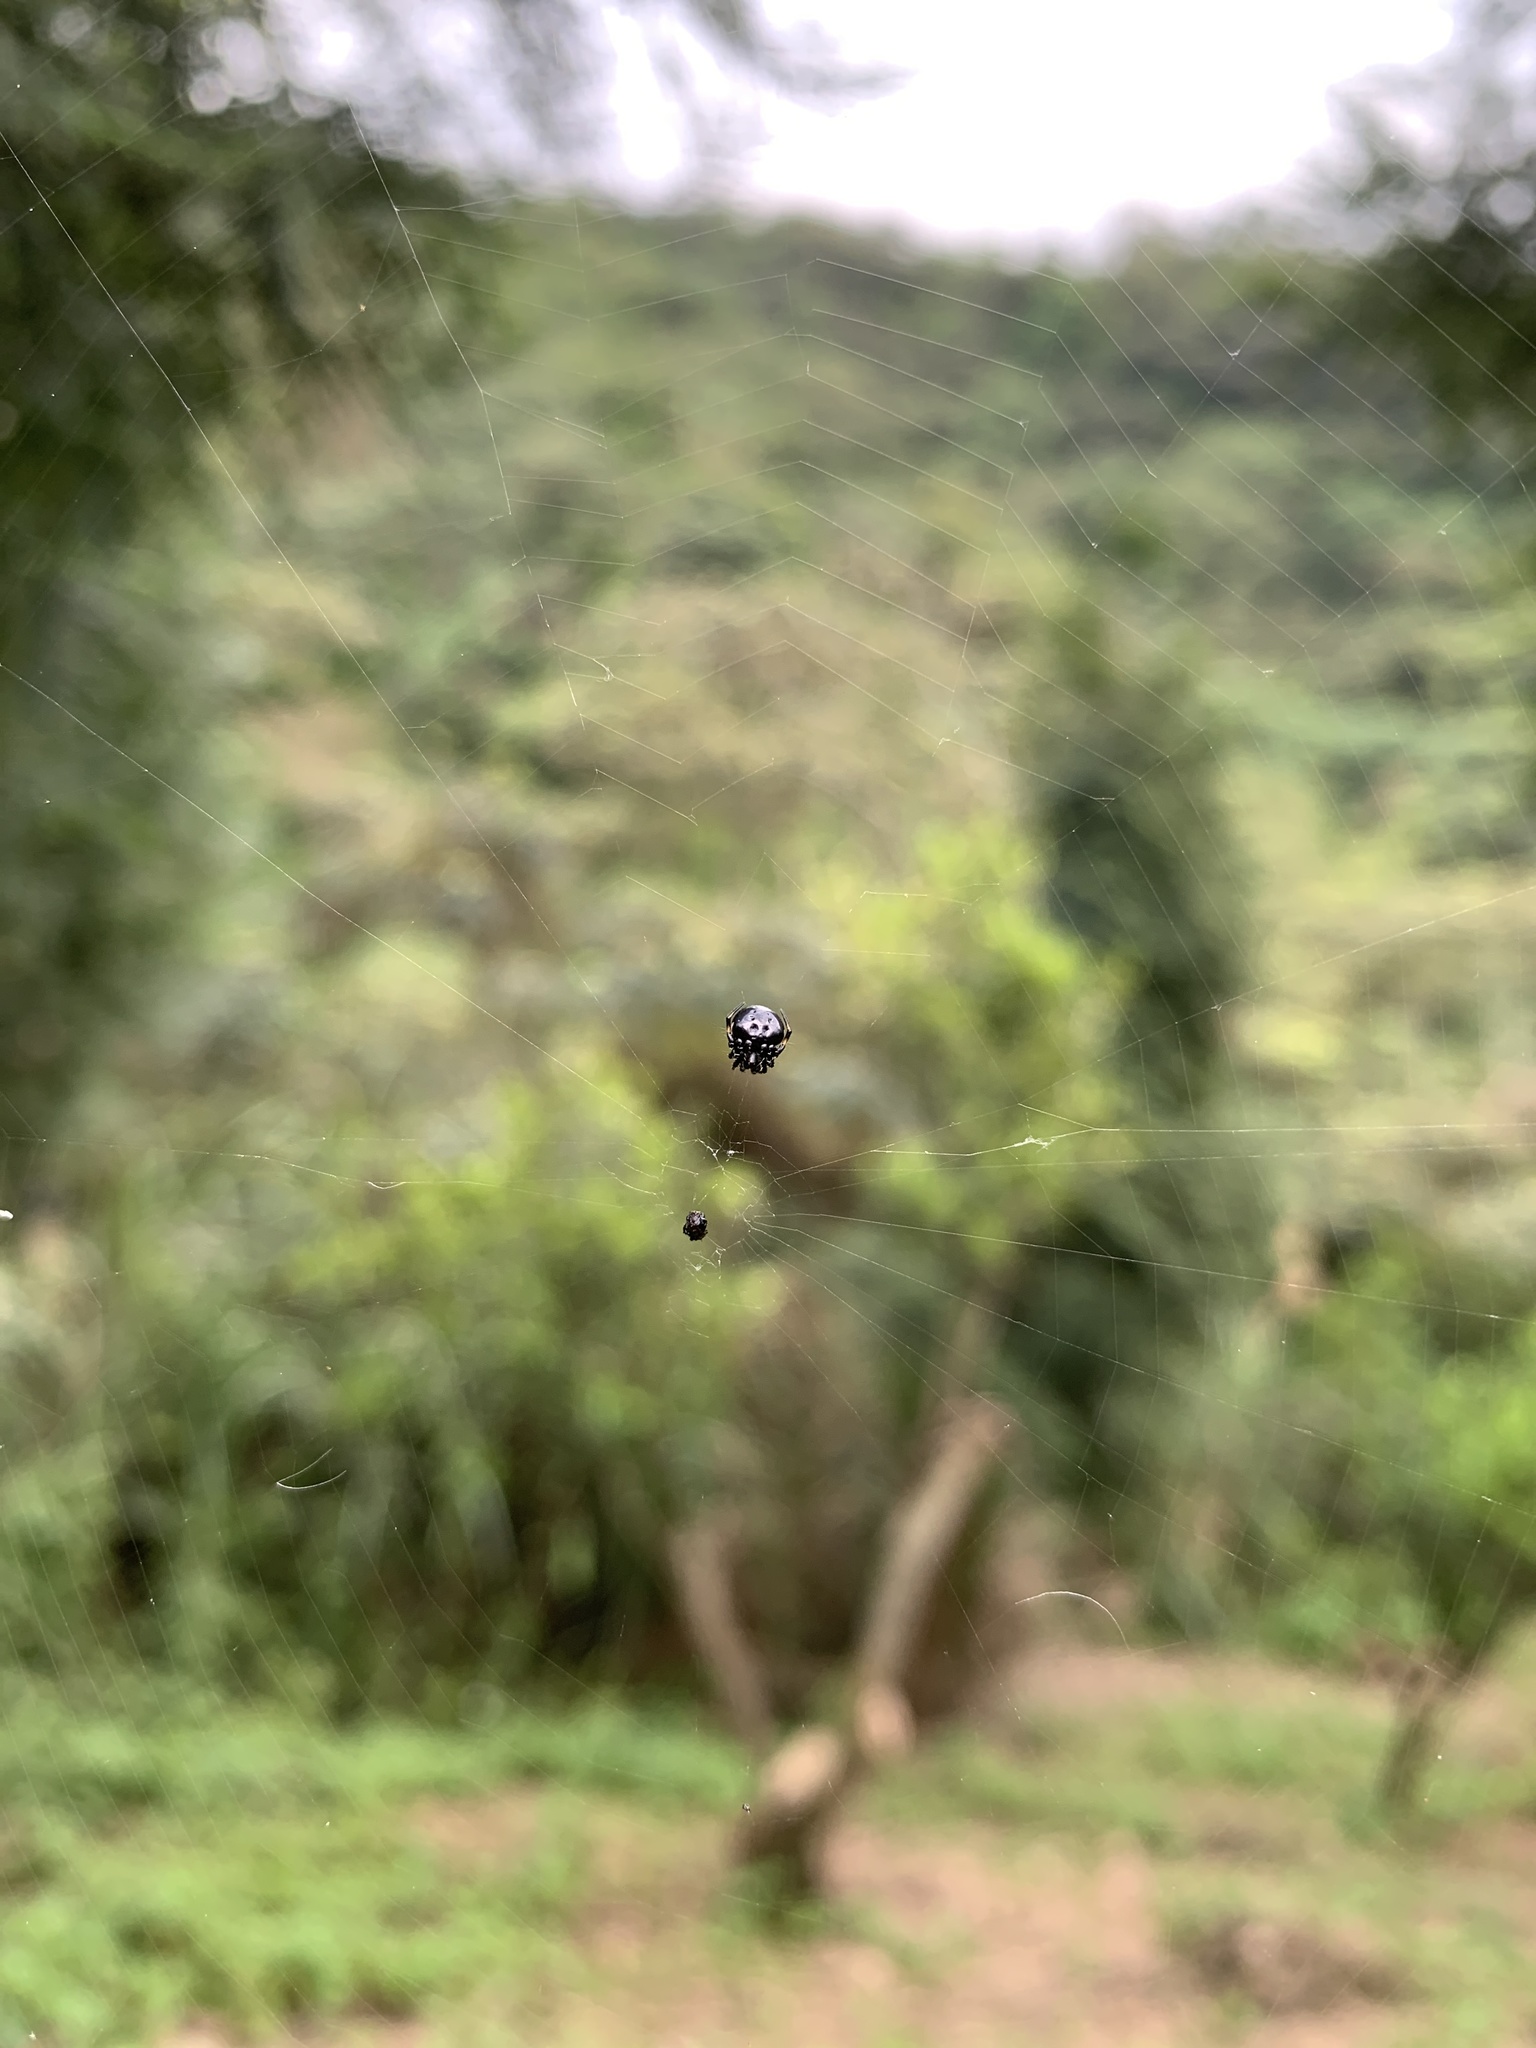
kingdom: Animalia
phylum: Arthropoda
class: Arachnida
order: Araneae
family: Araneidae
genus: Eriovixia
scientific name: Eriovixia sakiedaorum
